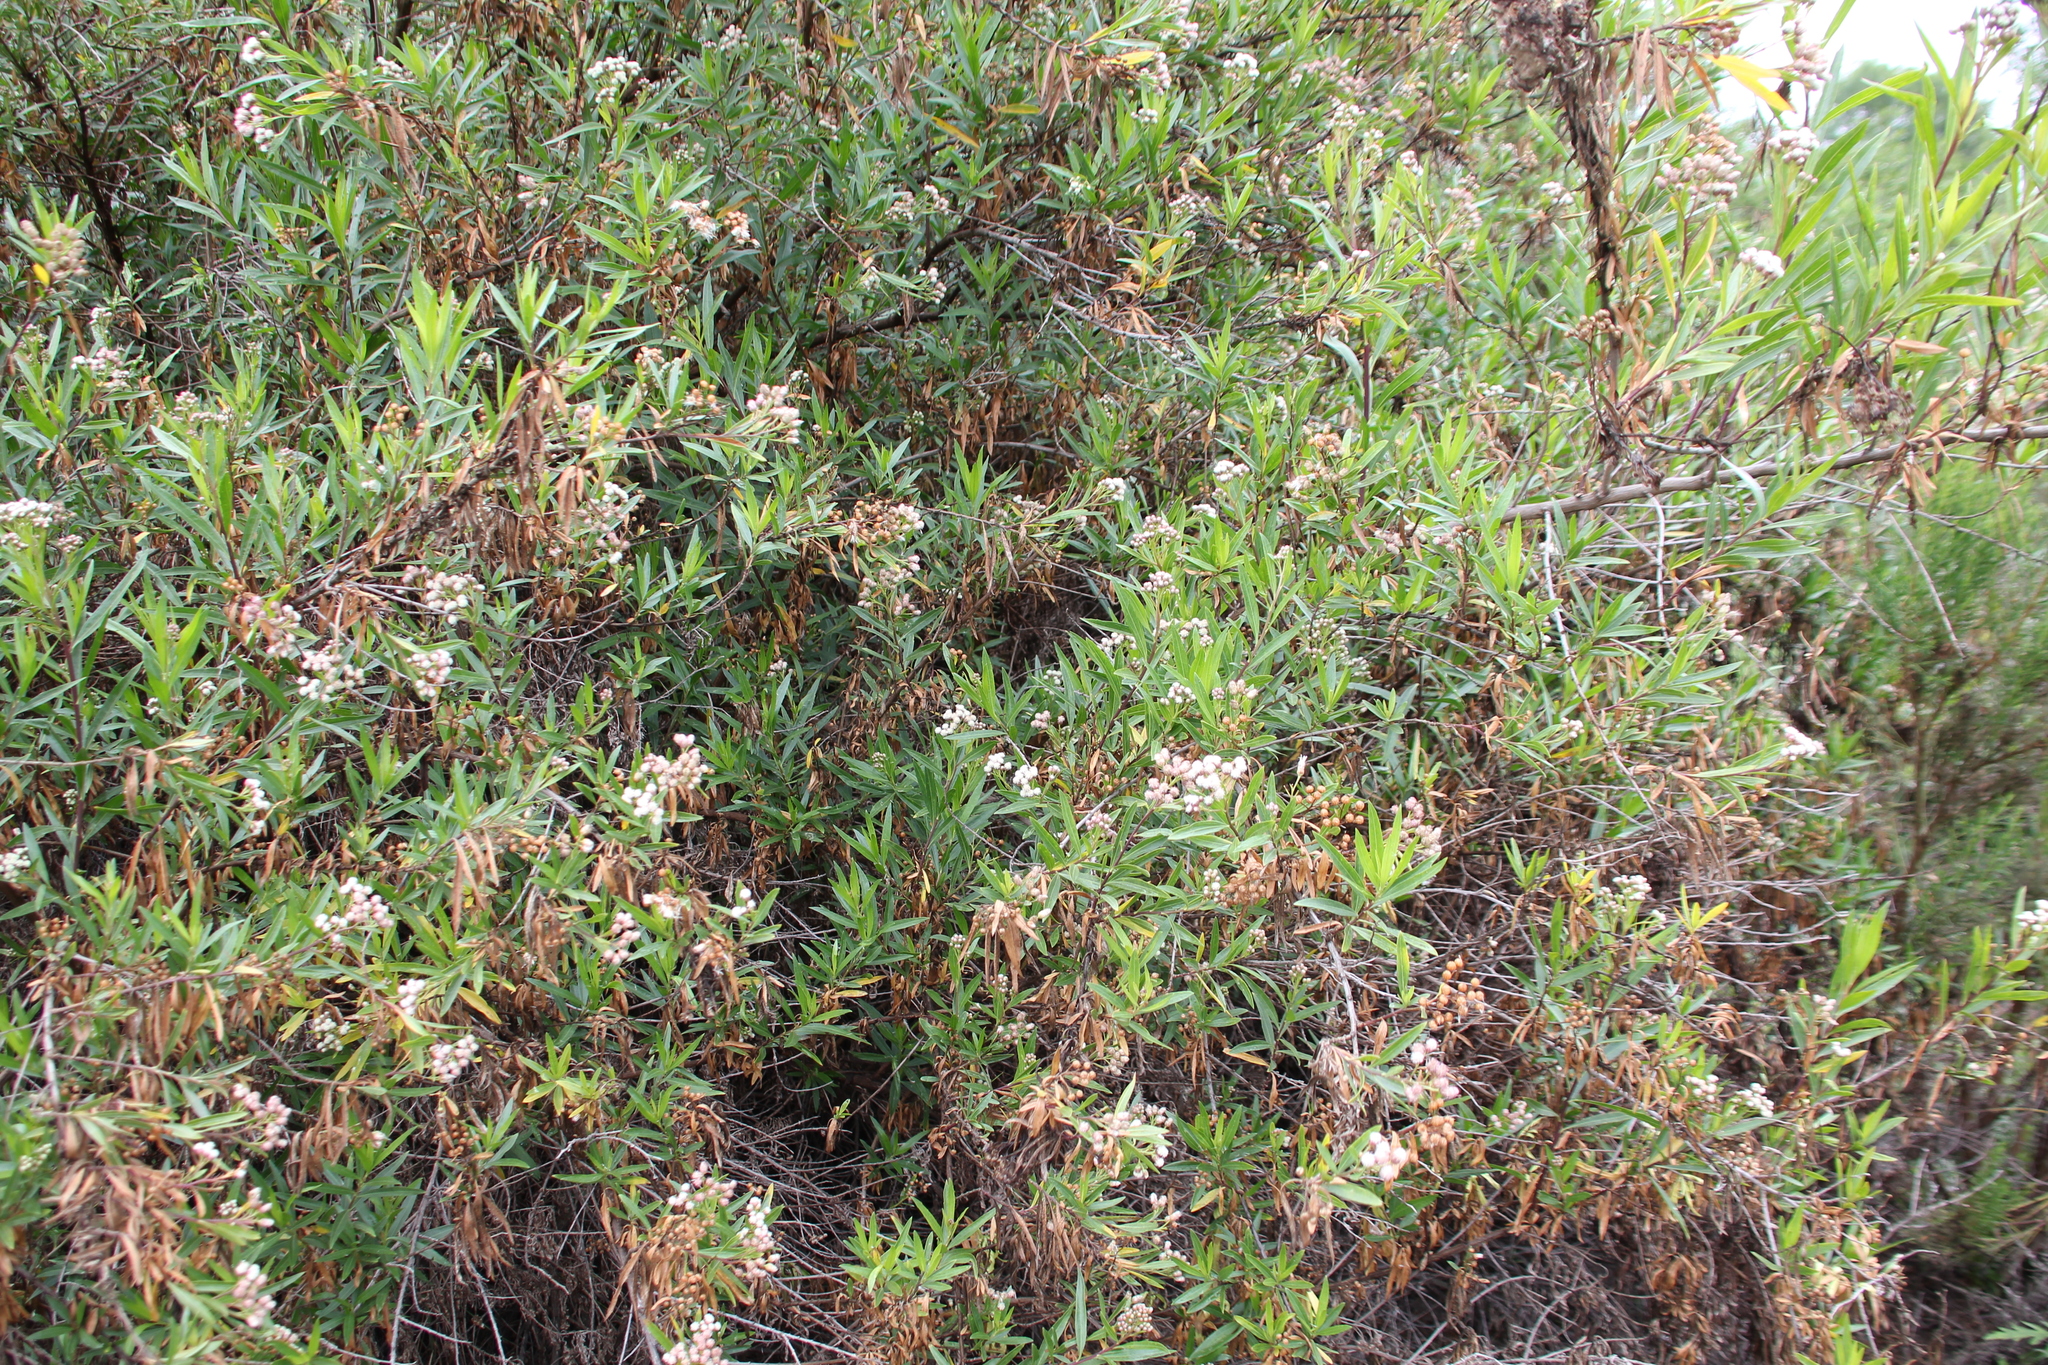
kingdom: Plantae
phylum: Tracheophyta
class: Magnoliopsida
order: Asterales
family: Asteraceae
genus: Baccharis
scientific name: Baccharis salicifolia
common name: Sticky baccharis
